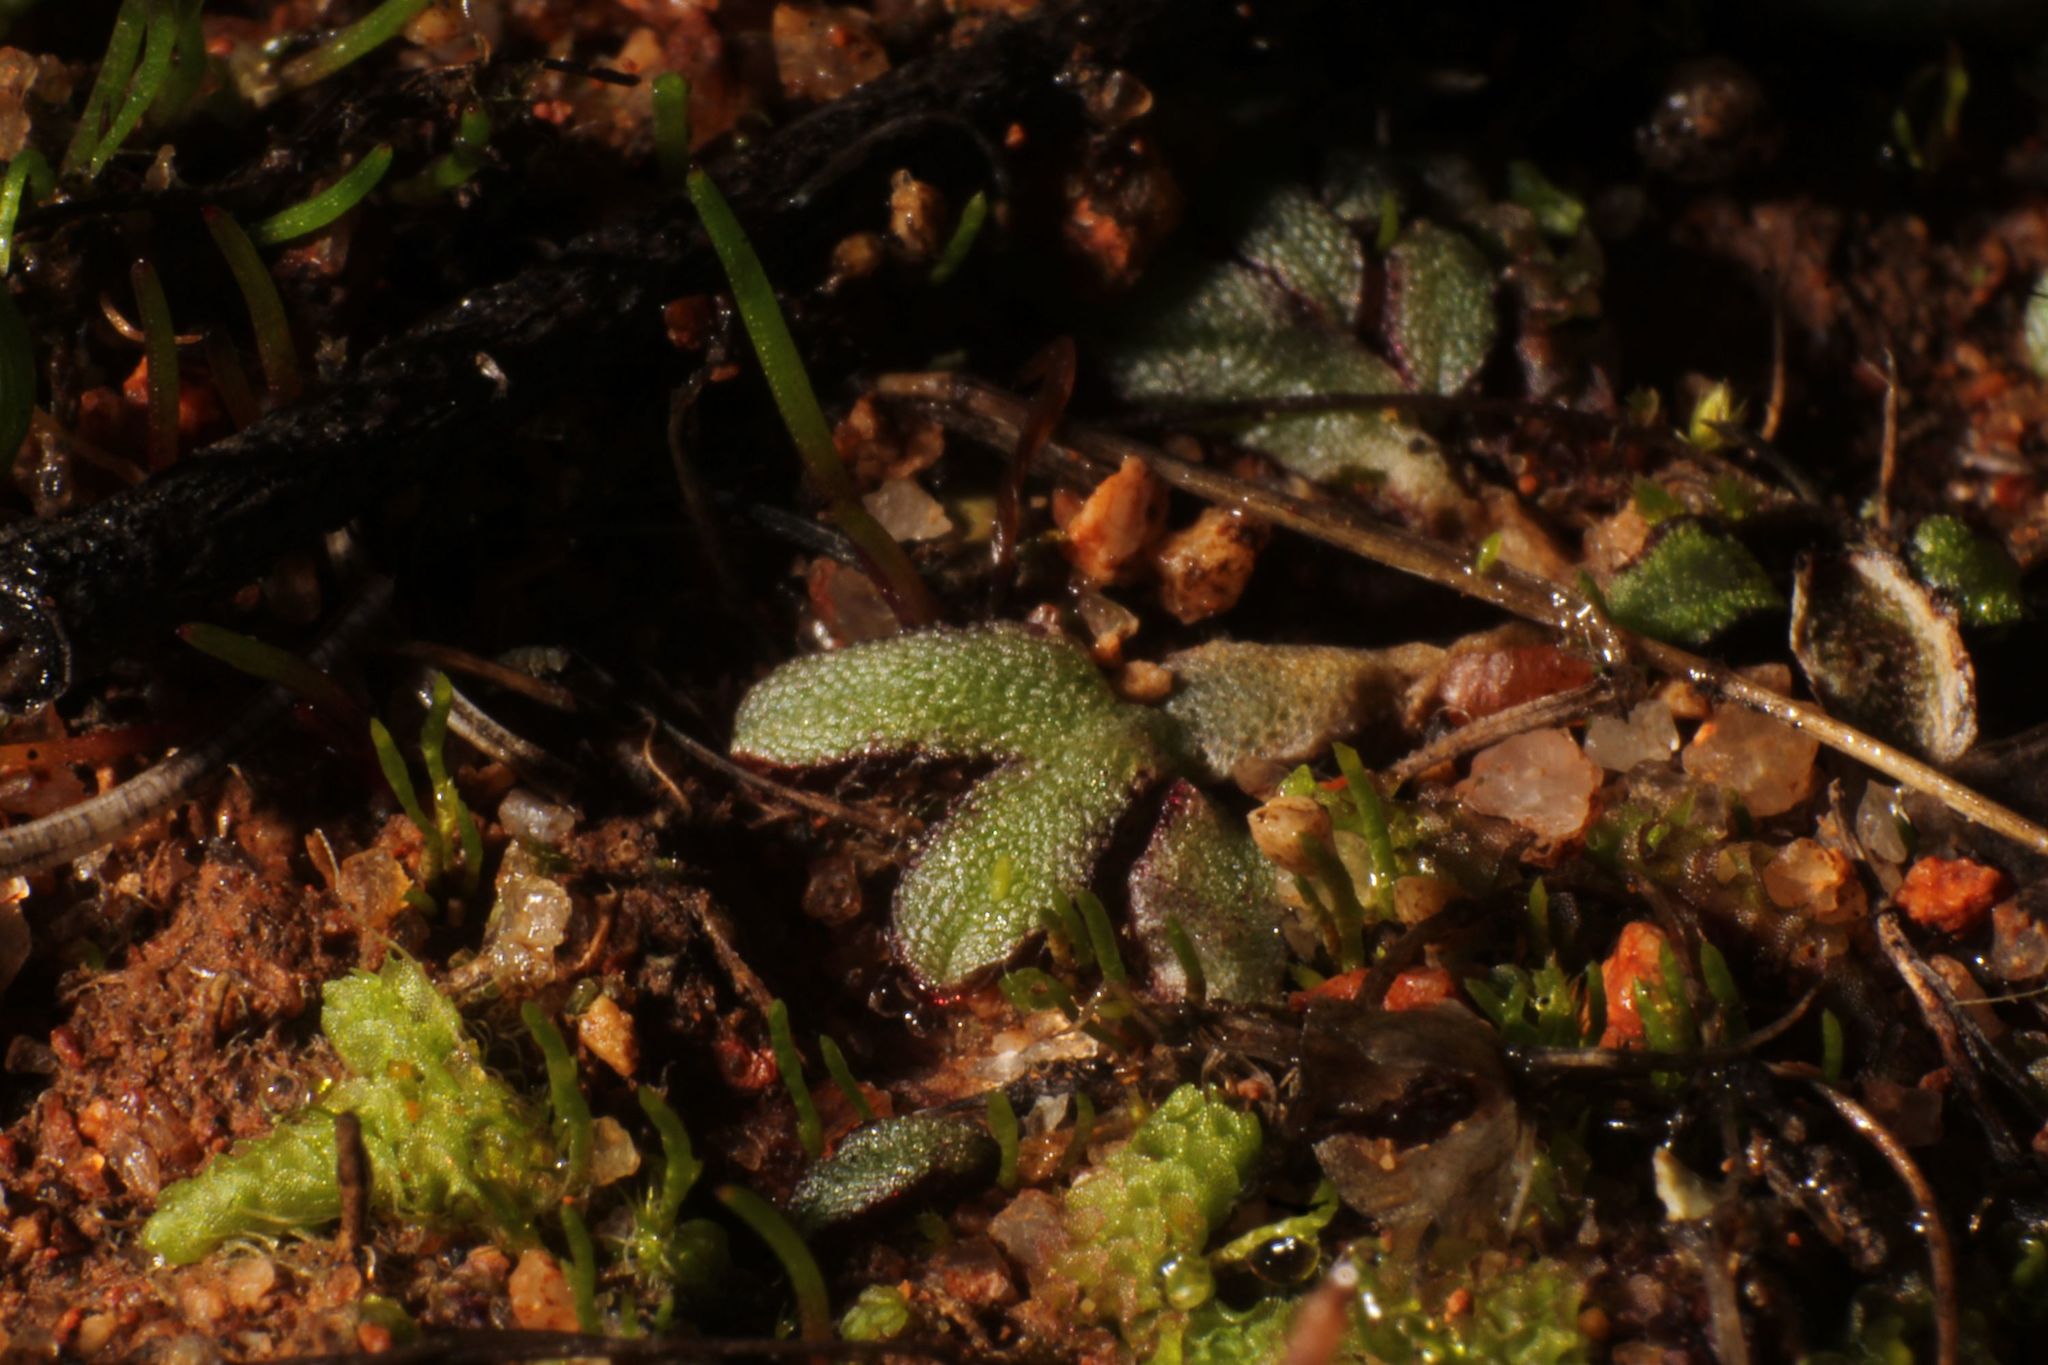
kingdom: Plantae
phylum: Marchantiophyta
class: Marchantiopsida
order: Marchantiales
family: Ricciaceae
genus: Riccia
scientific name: Riccia crassa
